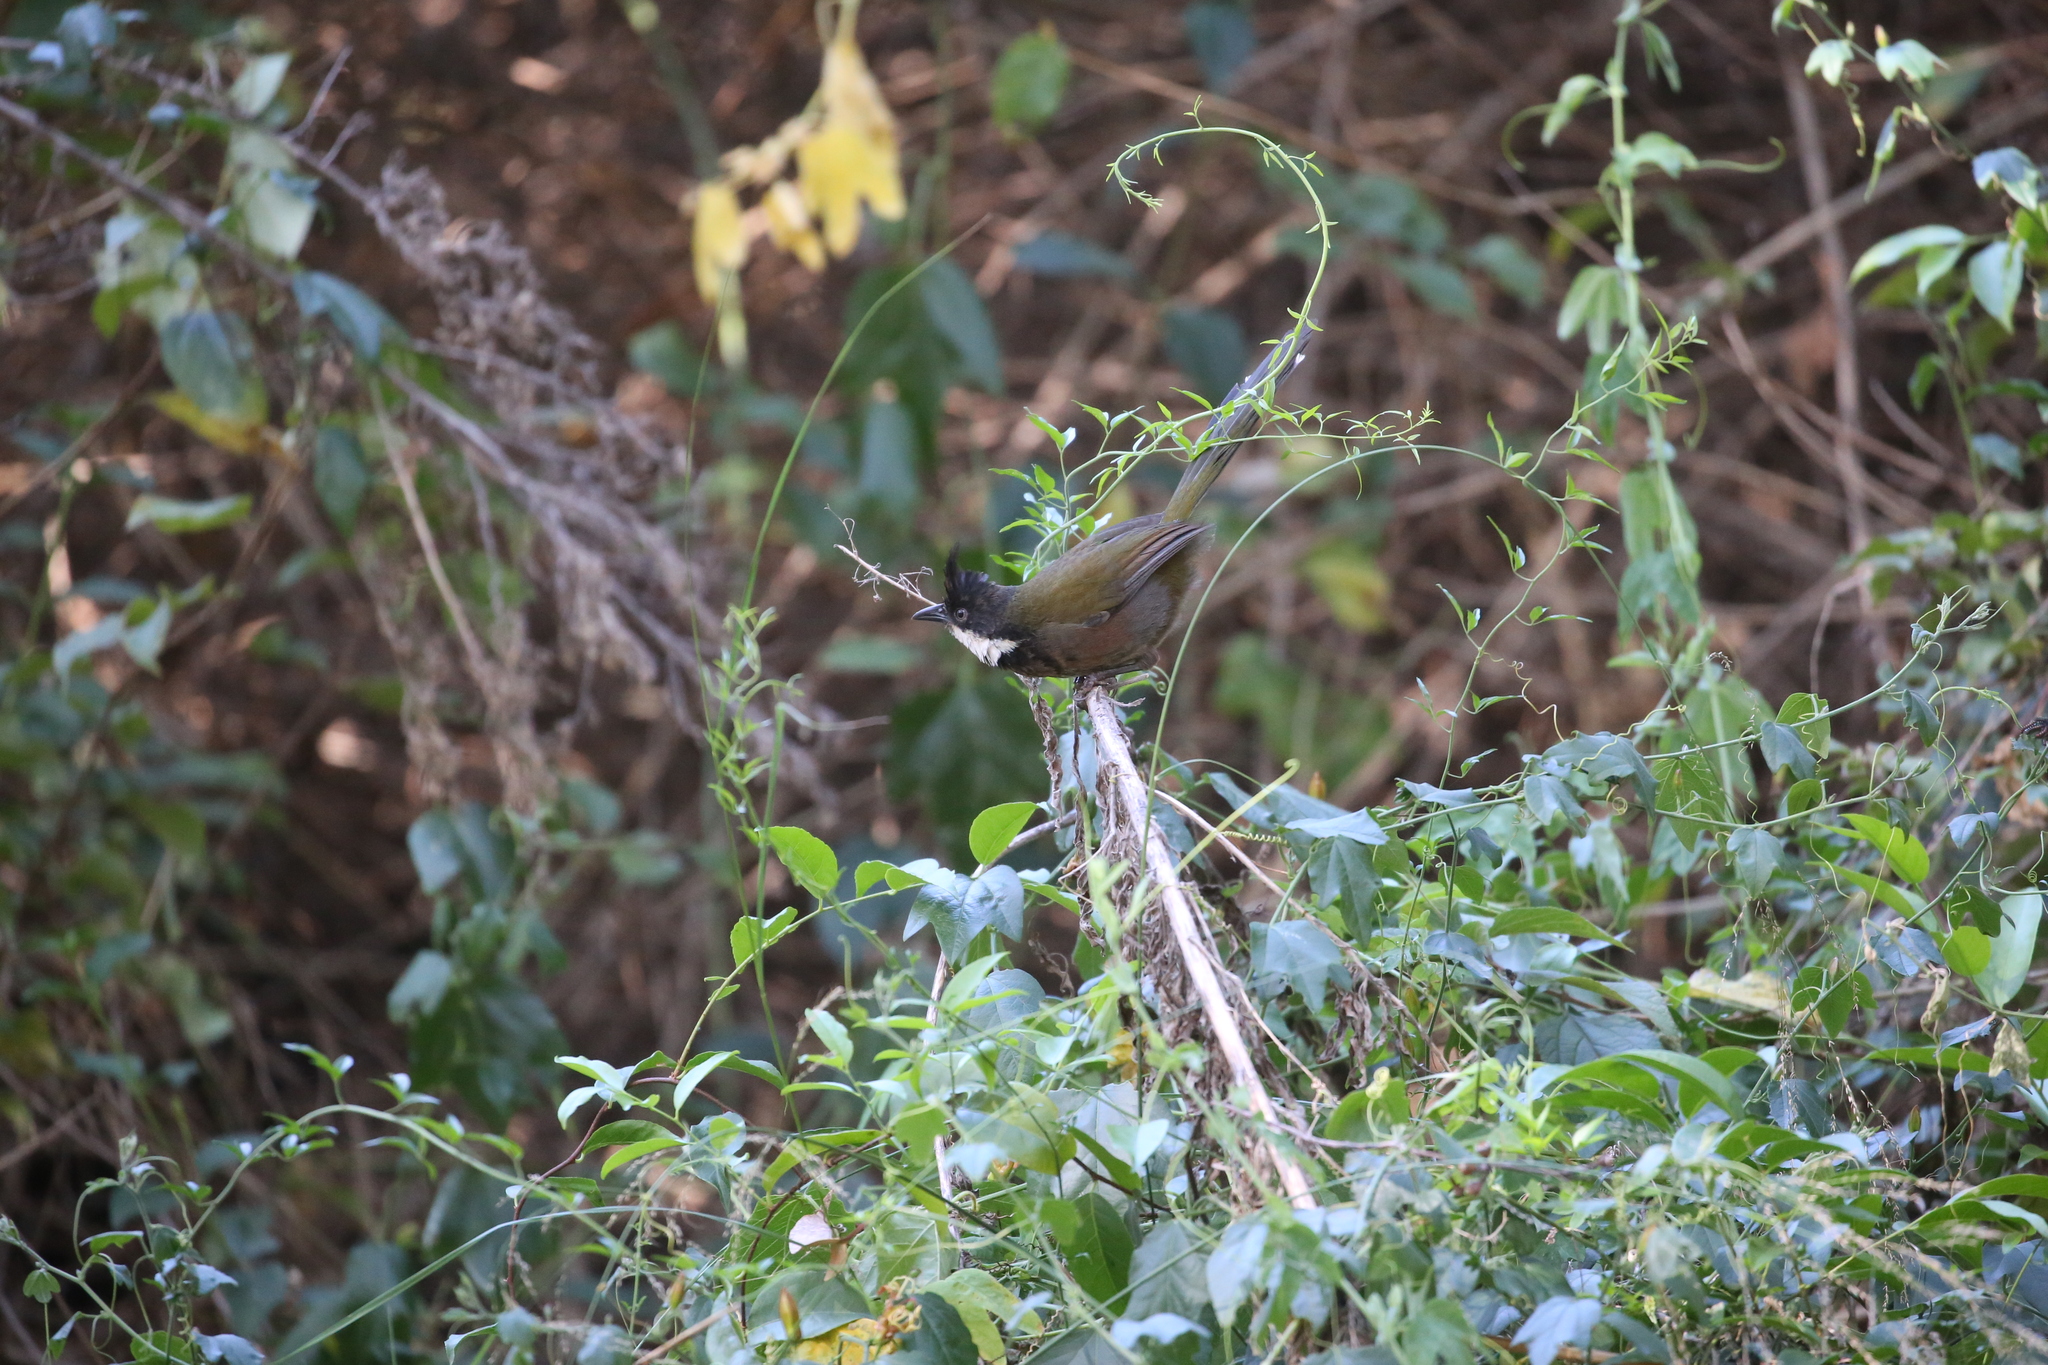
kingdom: Animalia
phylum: Chordata
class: Aves
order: Passeriformes
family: Psophodidae
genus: Psophodes
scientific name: Psophodes olivaceus
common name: Eastern whipbird
